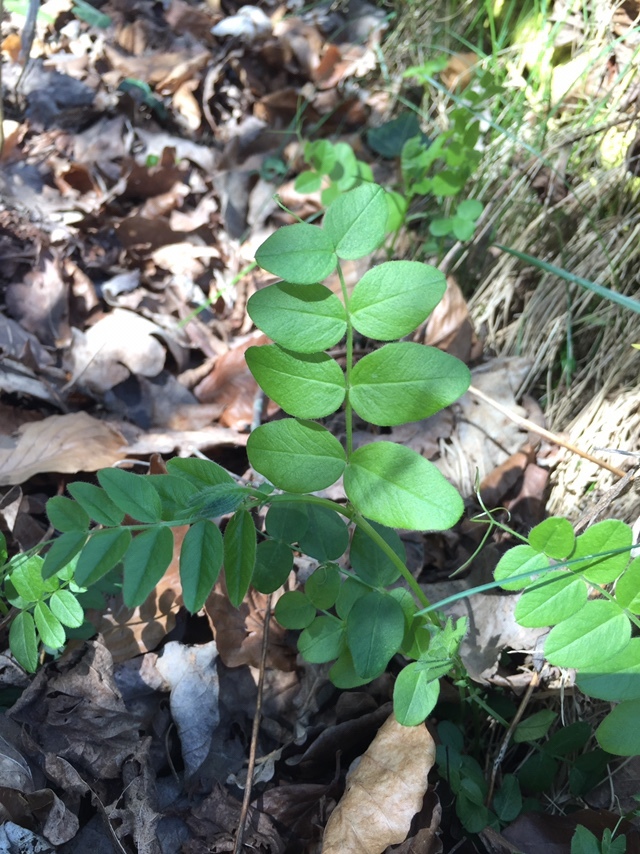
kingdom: Plantae
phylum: Tracheophyta
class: Magnoliopsida
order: Fabales
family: Fabaceae
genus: Vicia
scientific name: Vicia sepium
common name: Bush vetch
